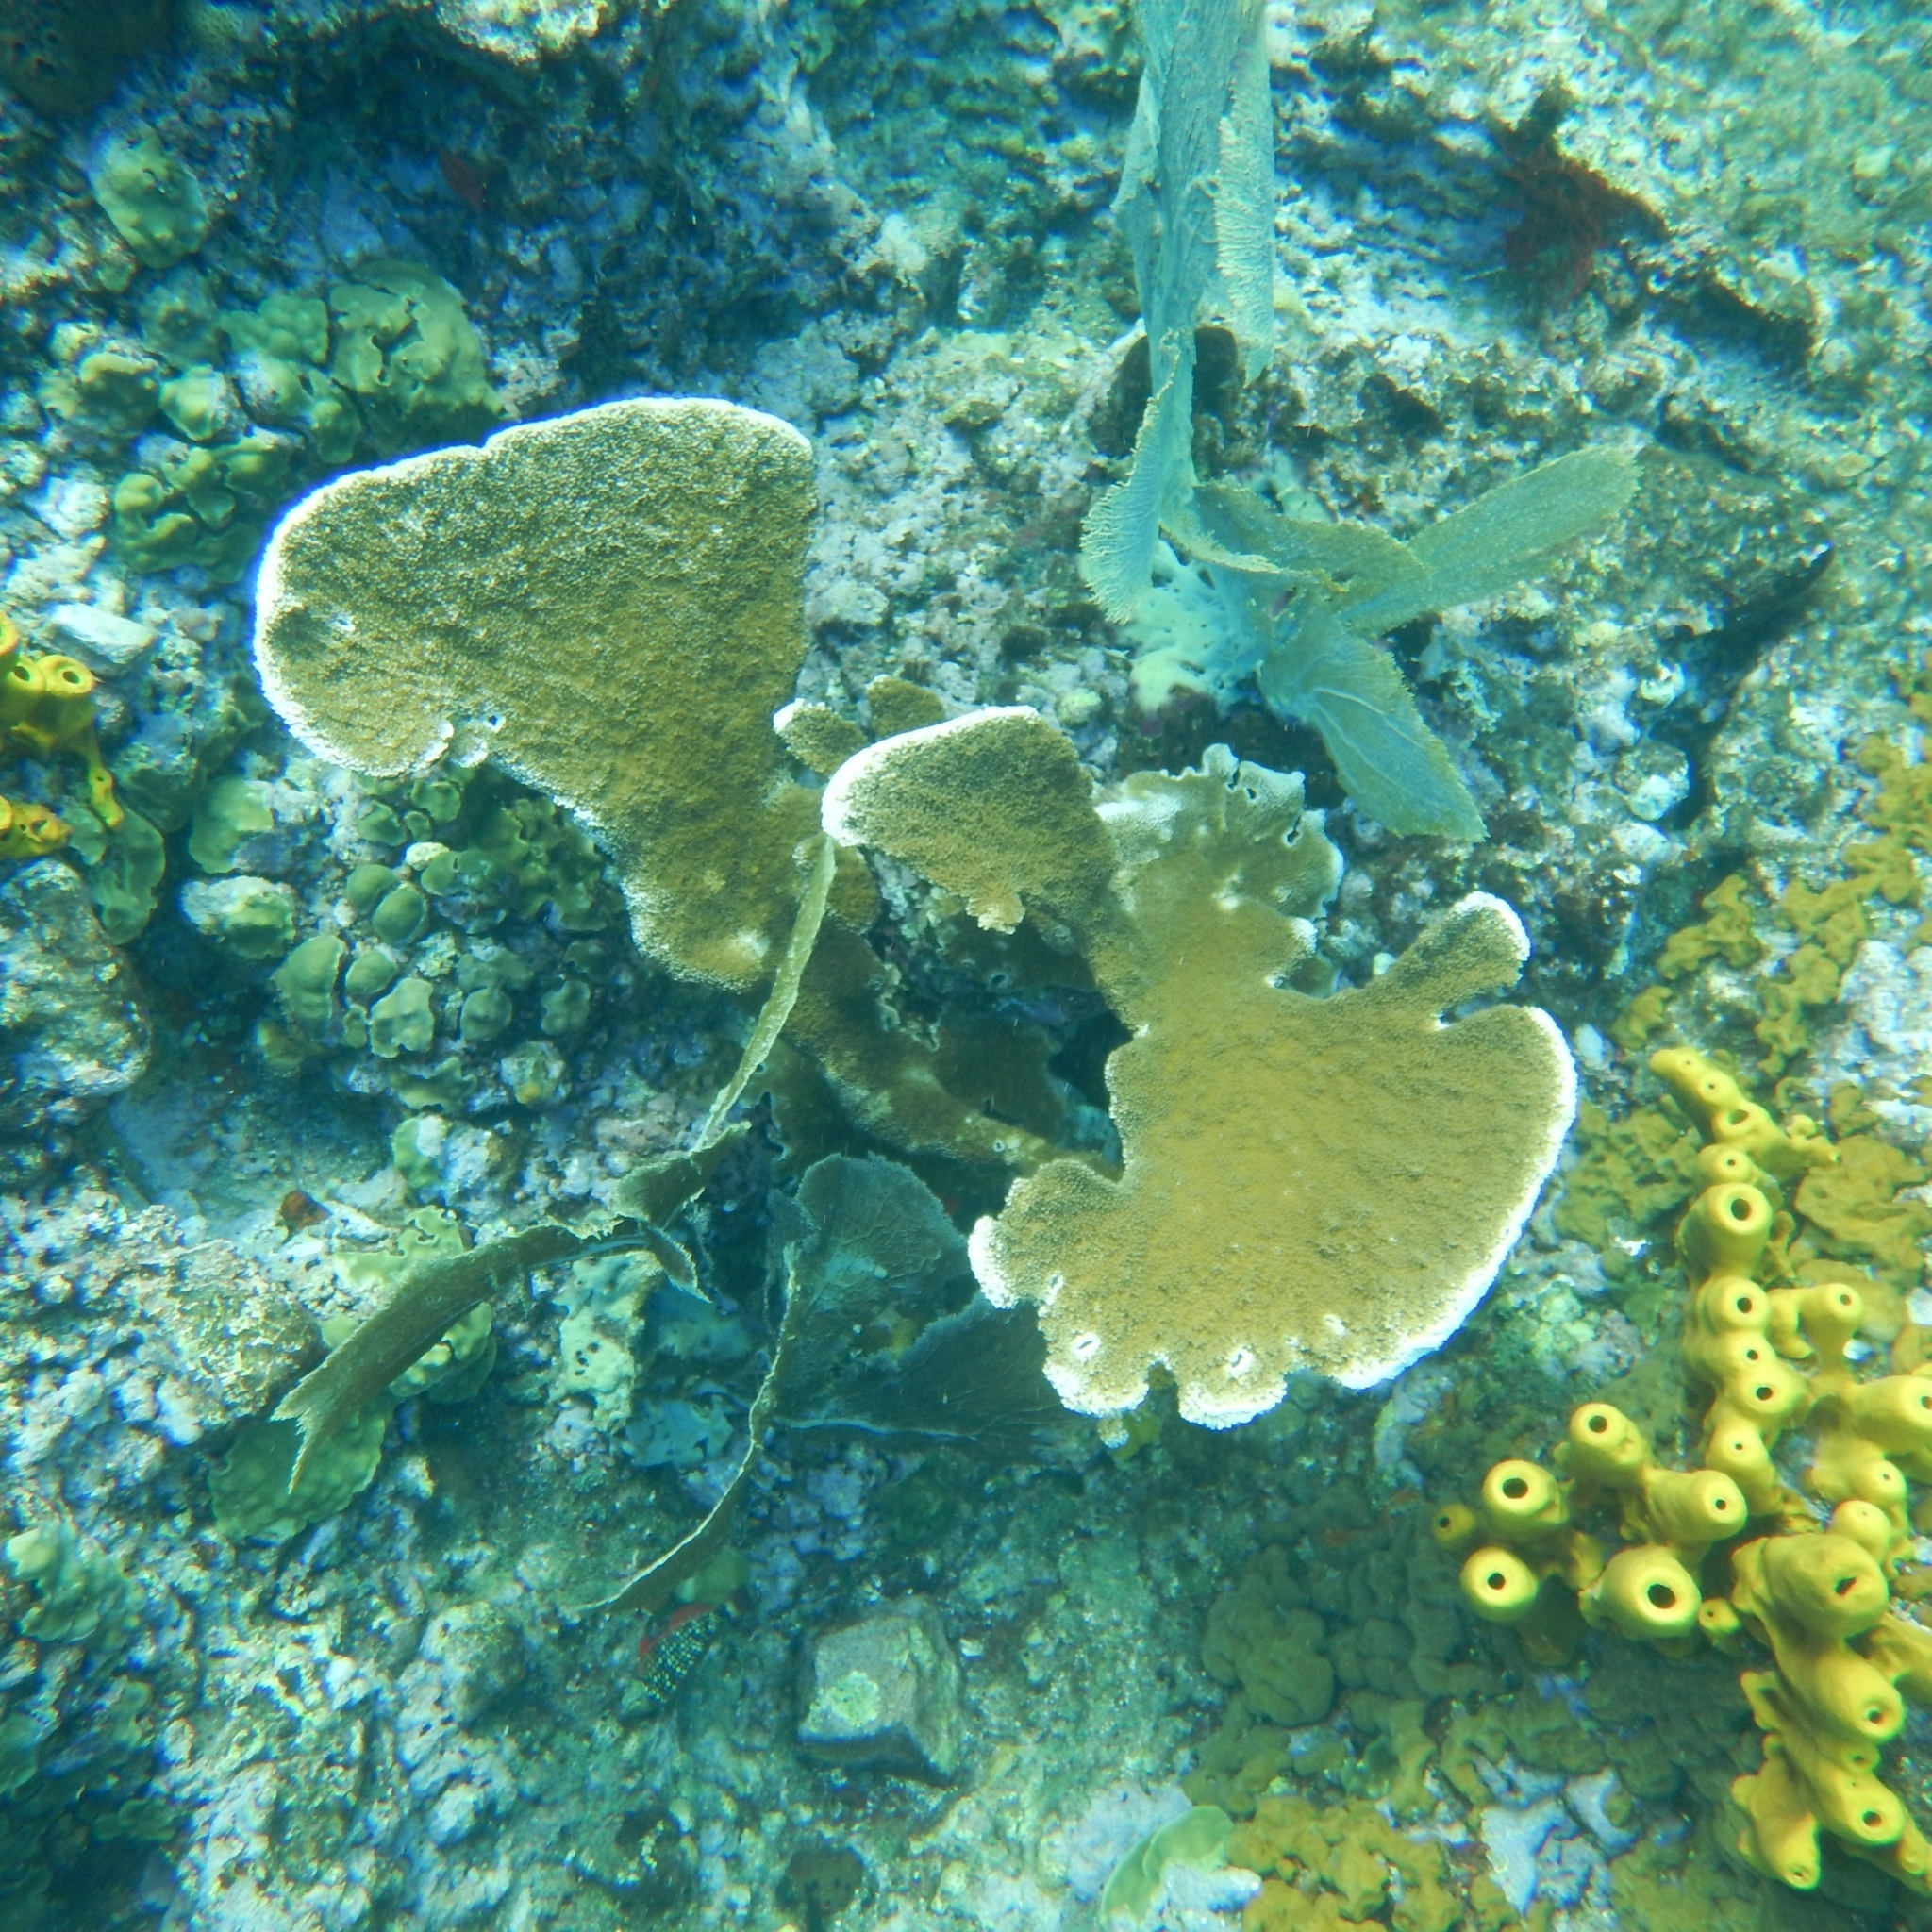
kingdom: Animalia
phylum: Cnidaria
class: Anthozoa
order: Scleractinia
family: Acroporidae
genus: Acropora
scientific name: Acropora palmata
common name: Elkhorn coral
